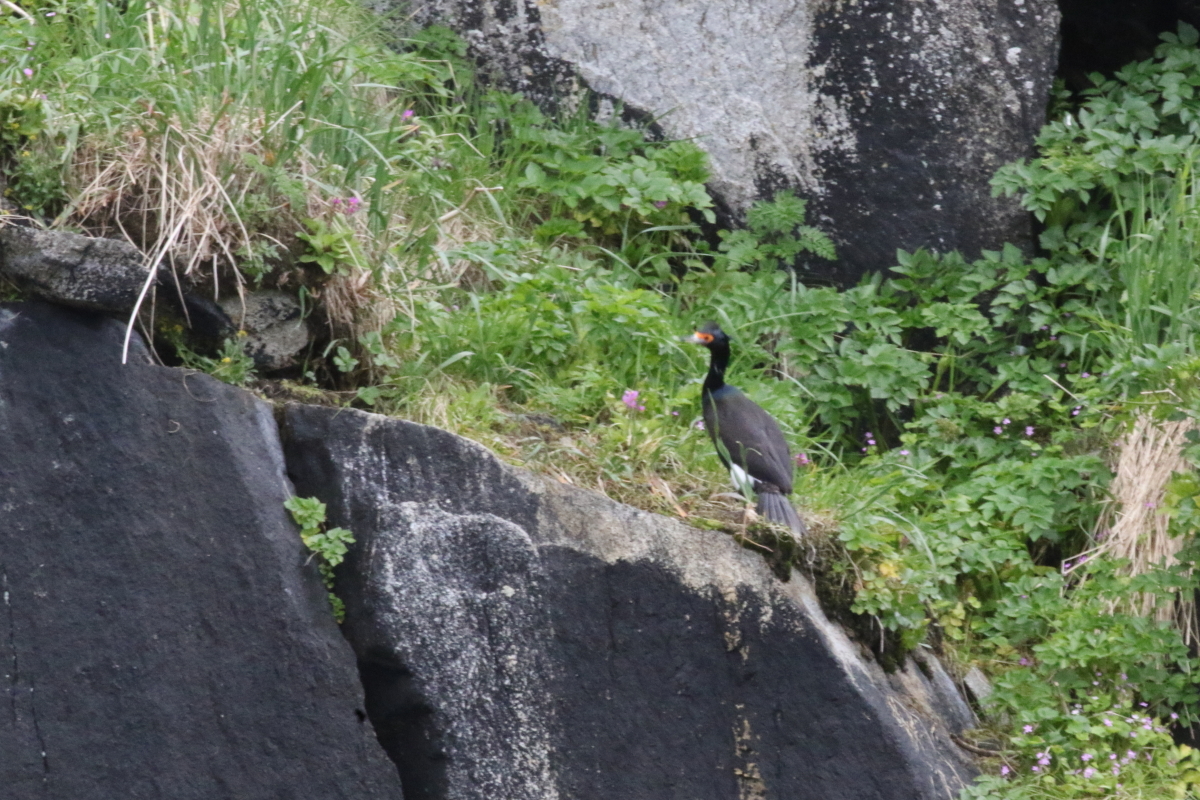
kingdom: Animalia
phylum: Chordata
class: Aves
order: Suliformes
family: Phalacrocoracidae
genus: Phalacrocorax
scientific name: Phalacrocorax urile
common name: Red-faced cormorant
